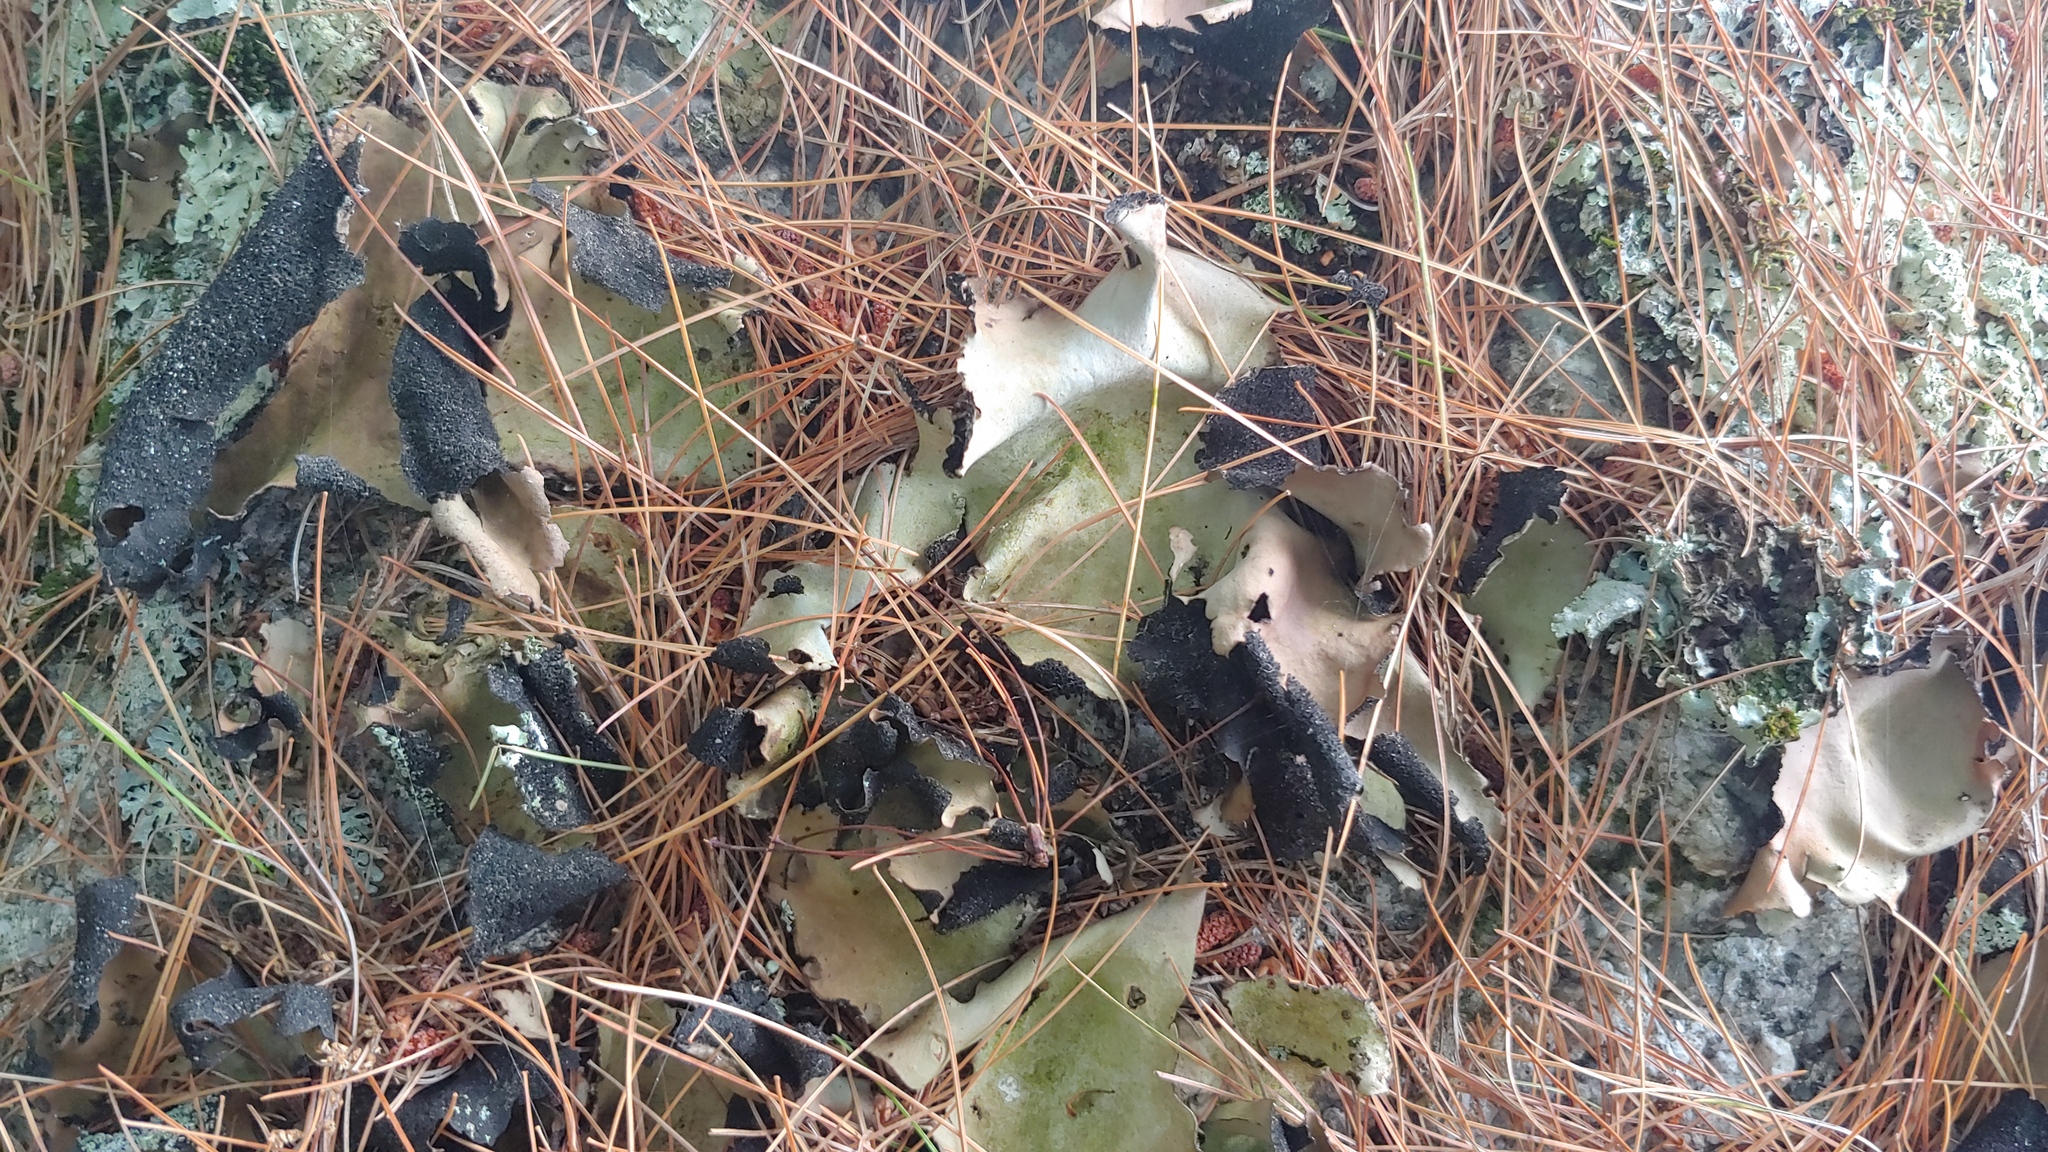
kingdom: Fungi
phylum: Ascomycota
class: Lecanoromycetes
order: Umbilicariales
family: Umbilicariaceae
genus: Umbilicaria
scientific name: Umbilicaria mammulata
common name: Smooth rock tripe
